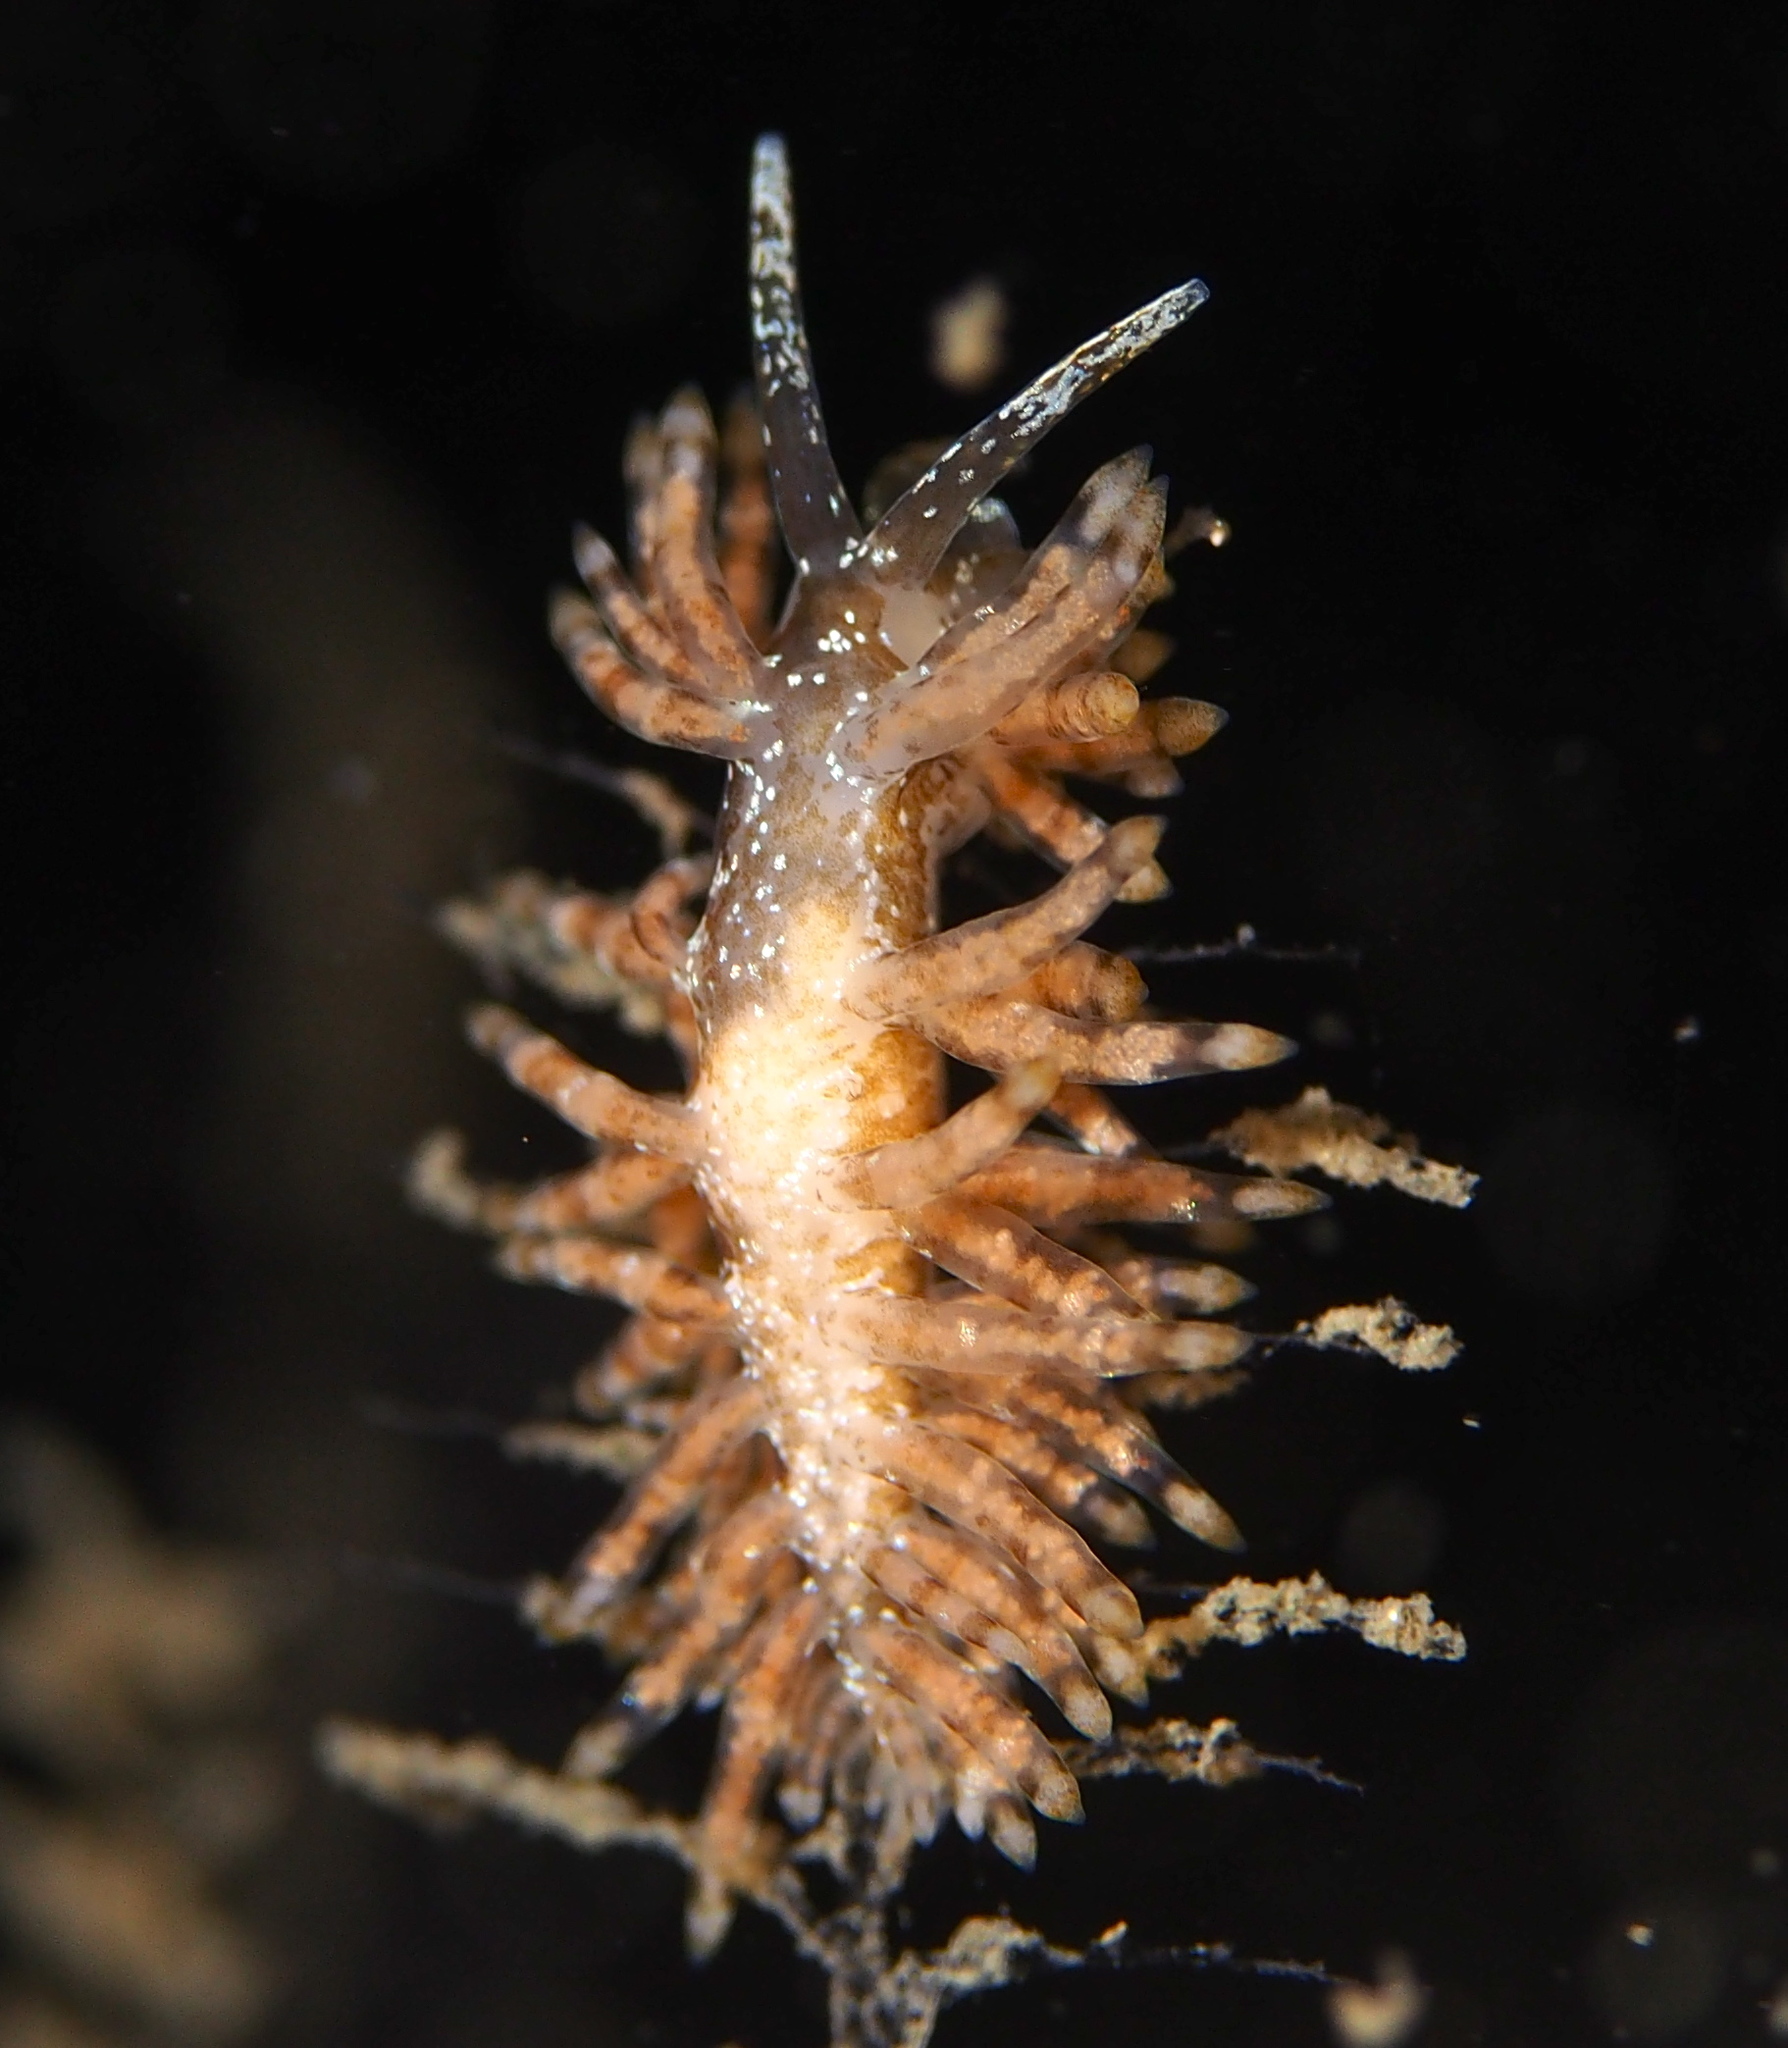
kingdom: Animalia
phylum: Mollusca
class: Gastropoda
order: Nudibranchia
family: Eubranchidae
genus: Eubranchus
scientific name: Eubranchus vittatus
